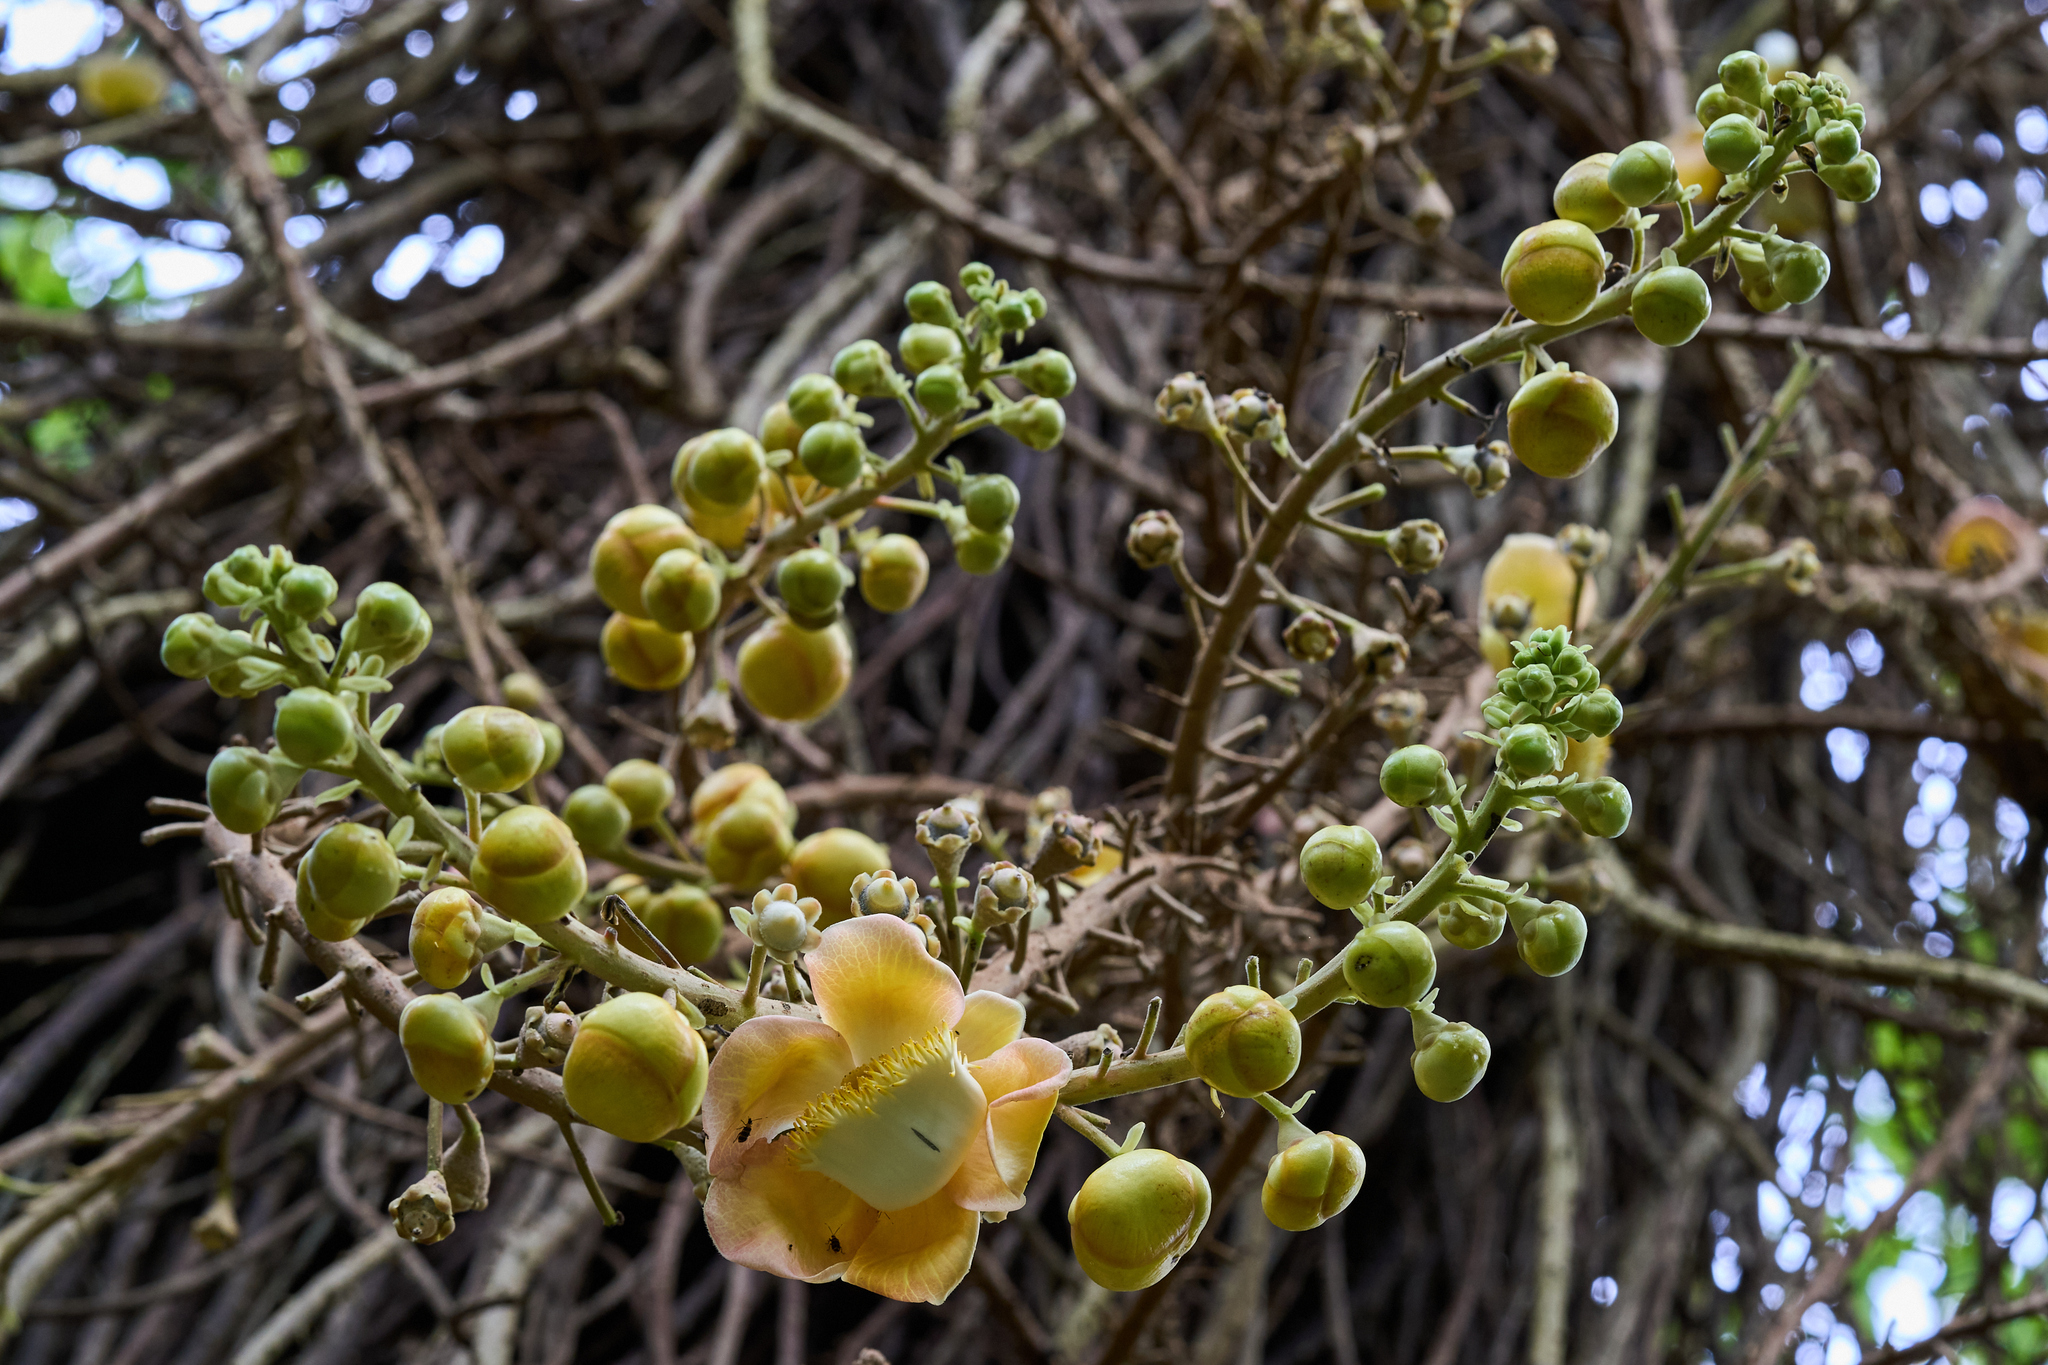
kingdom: Plantae
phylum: Tracheophyta
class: Magnoliopsida
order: Ericales
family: Lecythidaceae
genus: Couroupita
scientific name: Couroupita guianensis
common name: Cannonball tree
